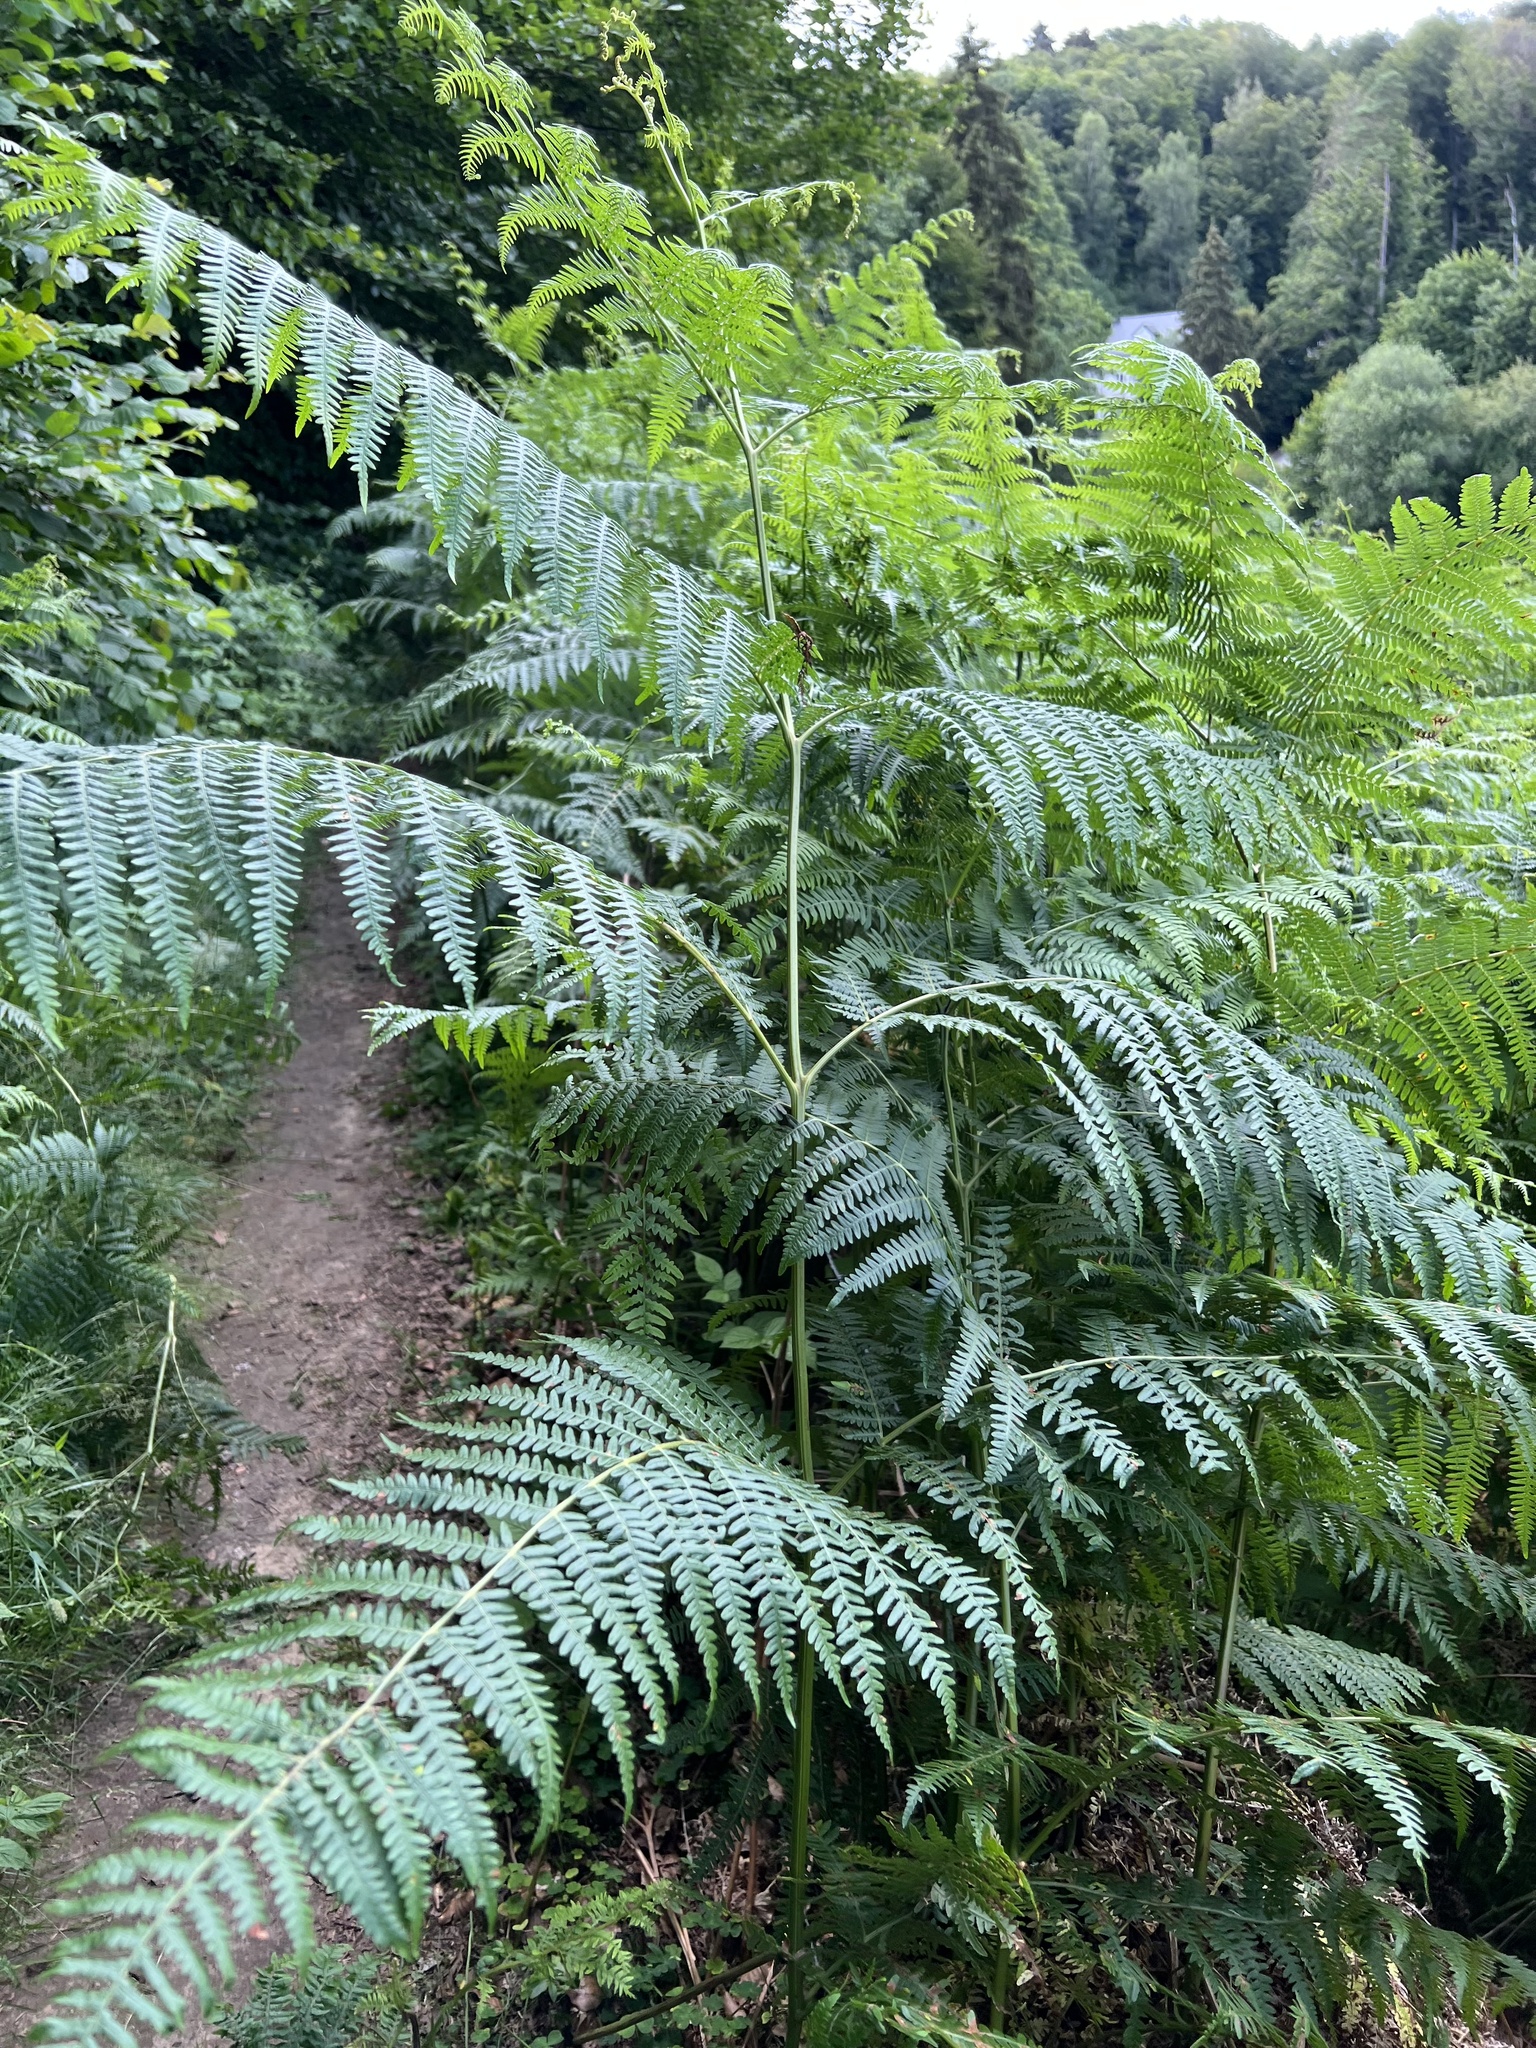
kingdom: Plantae
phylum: Tracheophyta
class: Polypodiopsida
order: Polypodiales
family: Dennstaedtiaceae
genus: Pteridium
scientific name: Pteridium aquilinum
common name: Bracken
